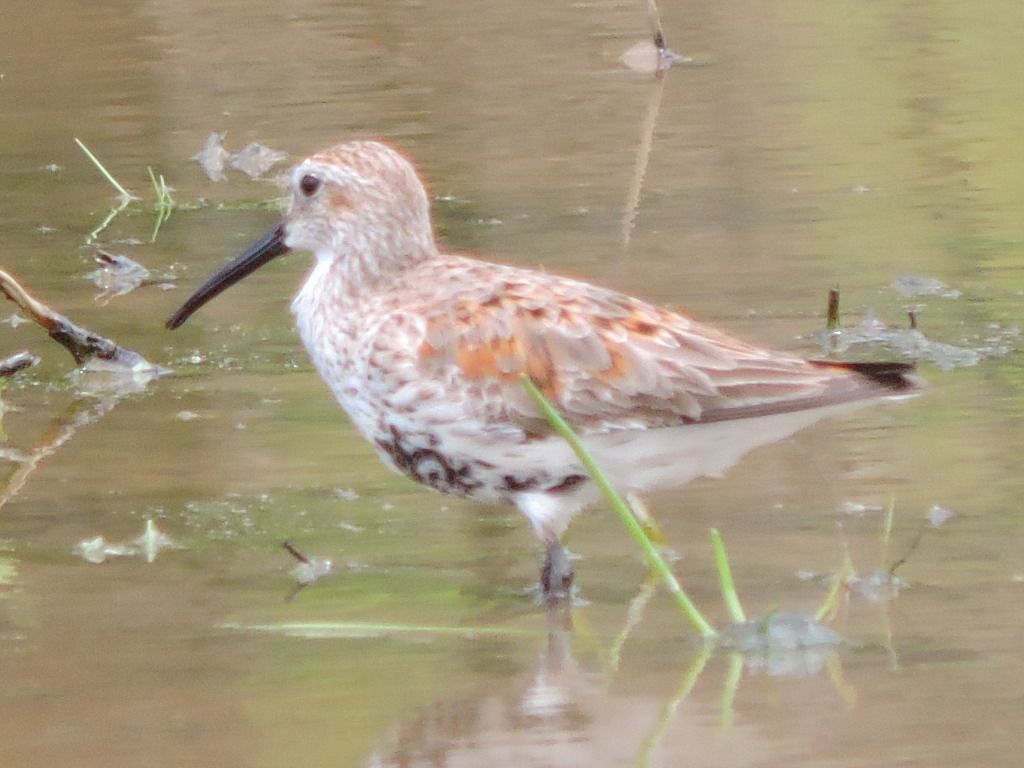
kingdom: Animalia
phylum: Chordata
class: Aves
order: Charadriiformes
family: Scolopacidae
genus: Calidris
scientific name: Calidris alpina
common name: Dunlin
